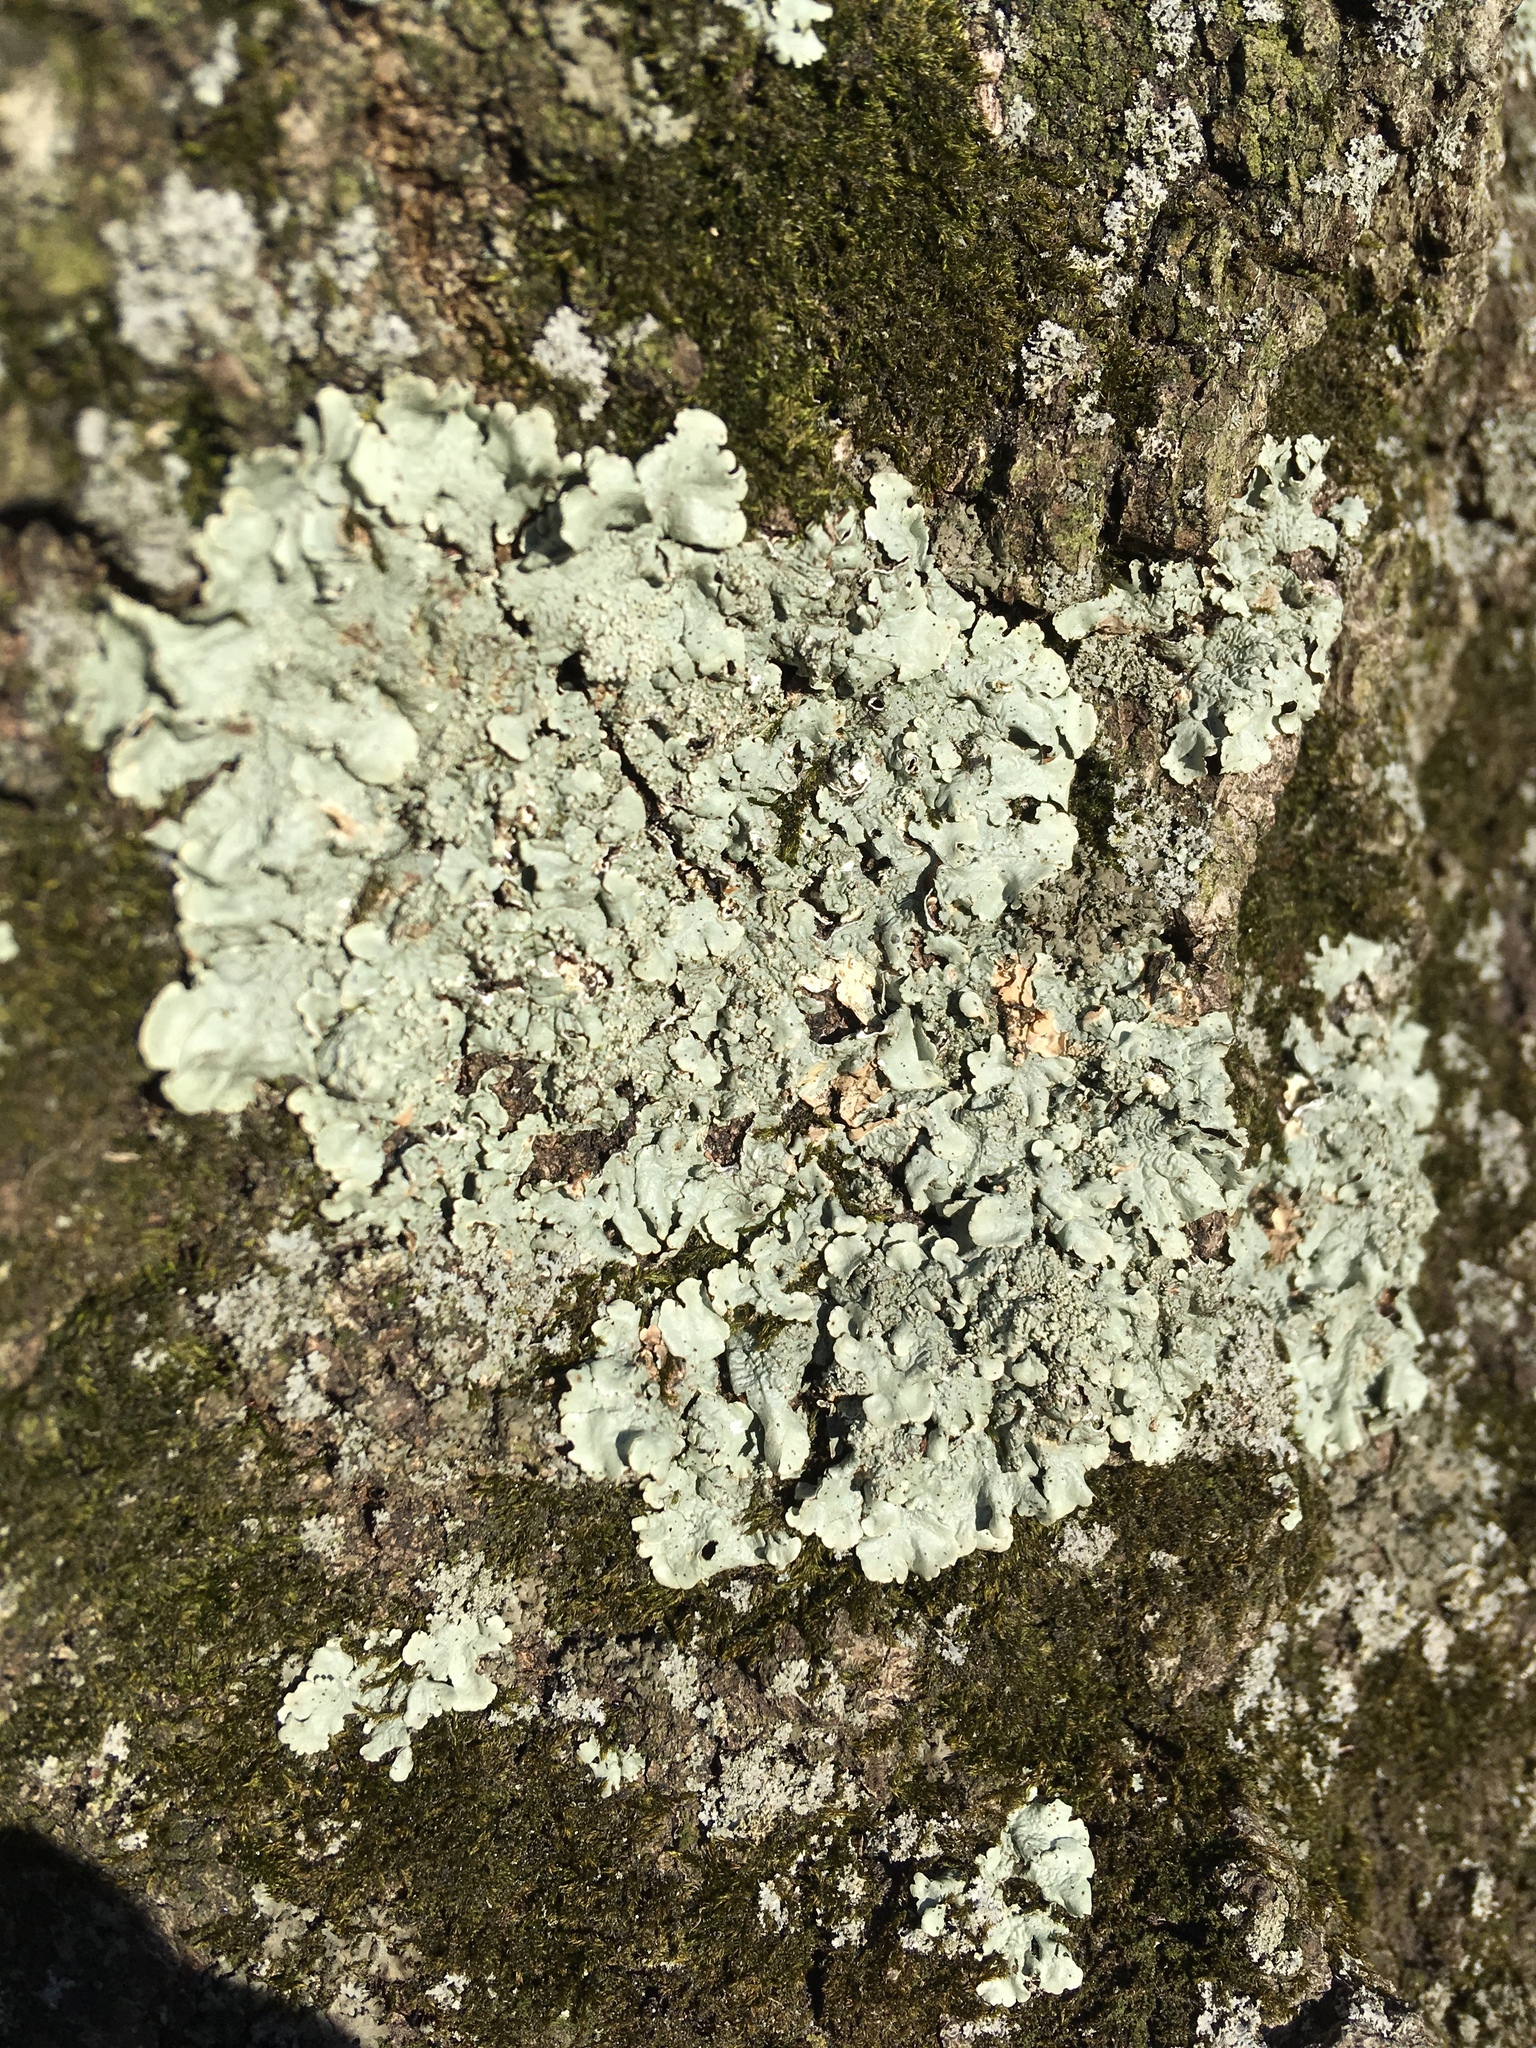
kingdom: Fungi
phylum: Ascomycota
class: Lecanoromycetes
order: Lecanorales
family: Parmeliaceae
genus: Flavoparmelia
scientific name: Flavoparmelia caperata
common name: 40-mile per hour lichen
